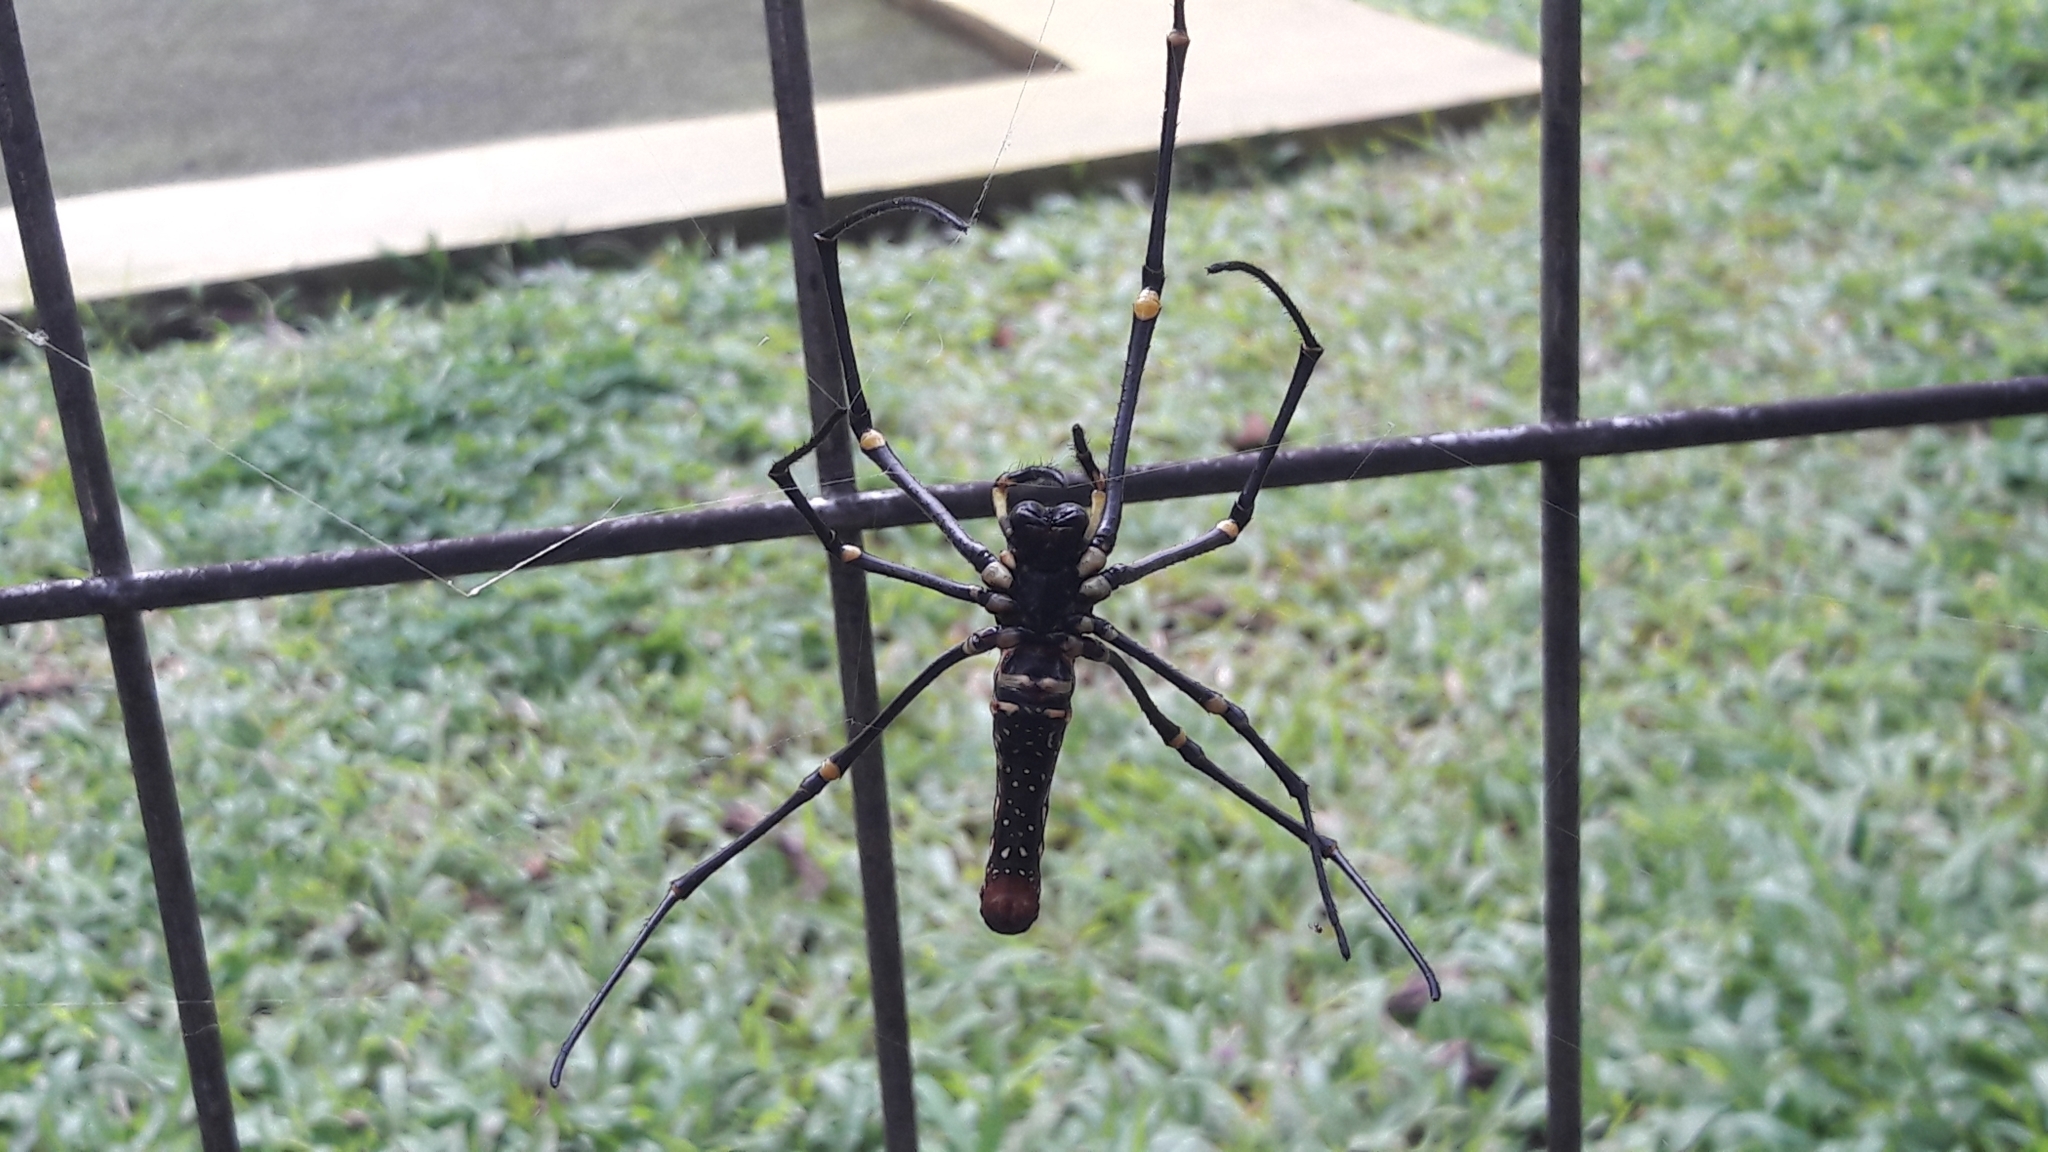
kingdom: Animalia
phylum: Arthropoda
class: Arachnida
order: Araneae
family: Araneidae
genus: Nephila
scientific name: Nephila pilipes
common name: Giant golden orb weaver
